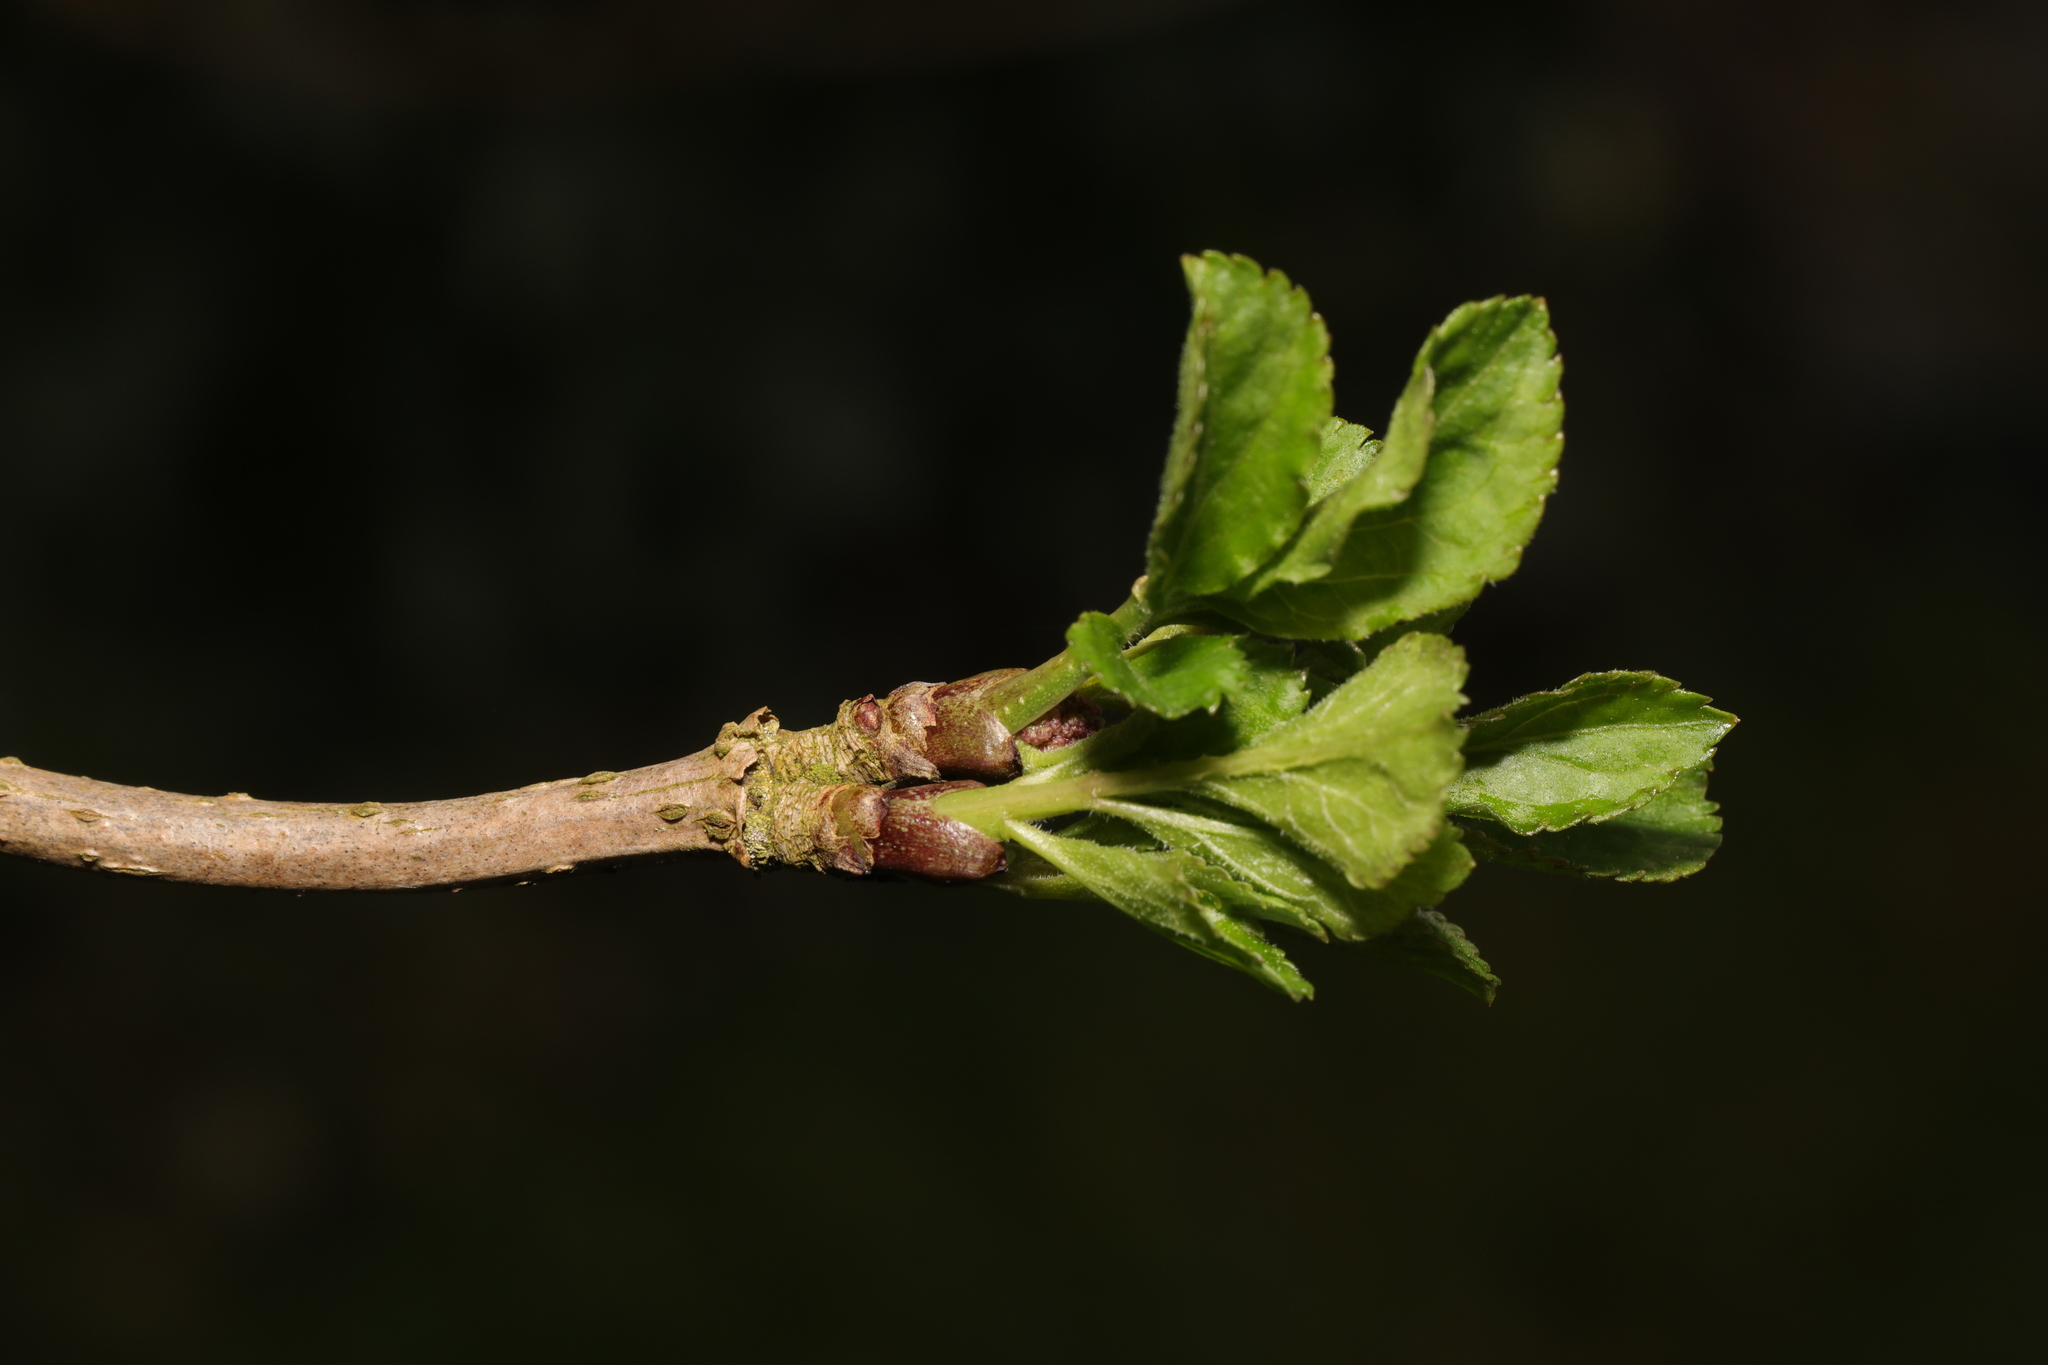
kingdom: Plantae
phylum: Tracheophyta
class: Magnoliopsida
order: Dipsacales
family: Viburnaceae
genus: Sambucus
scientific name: Sambucus nigra
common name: Elder
